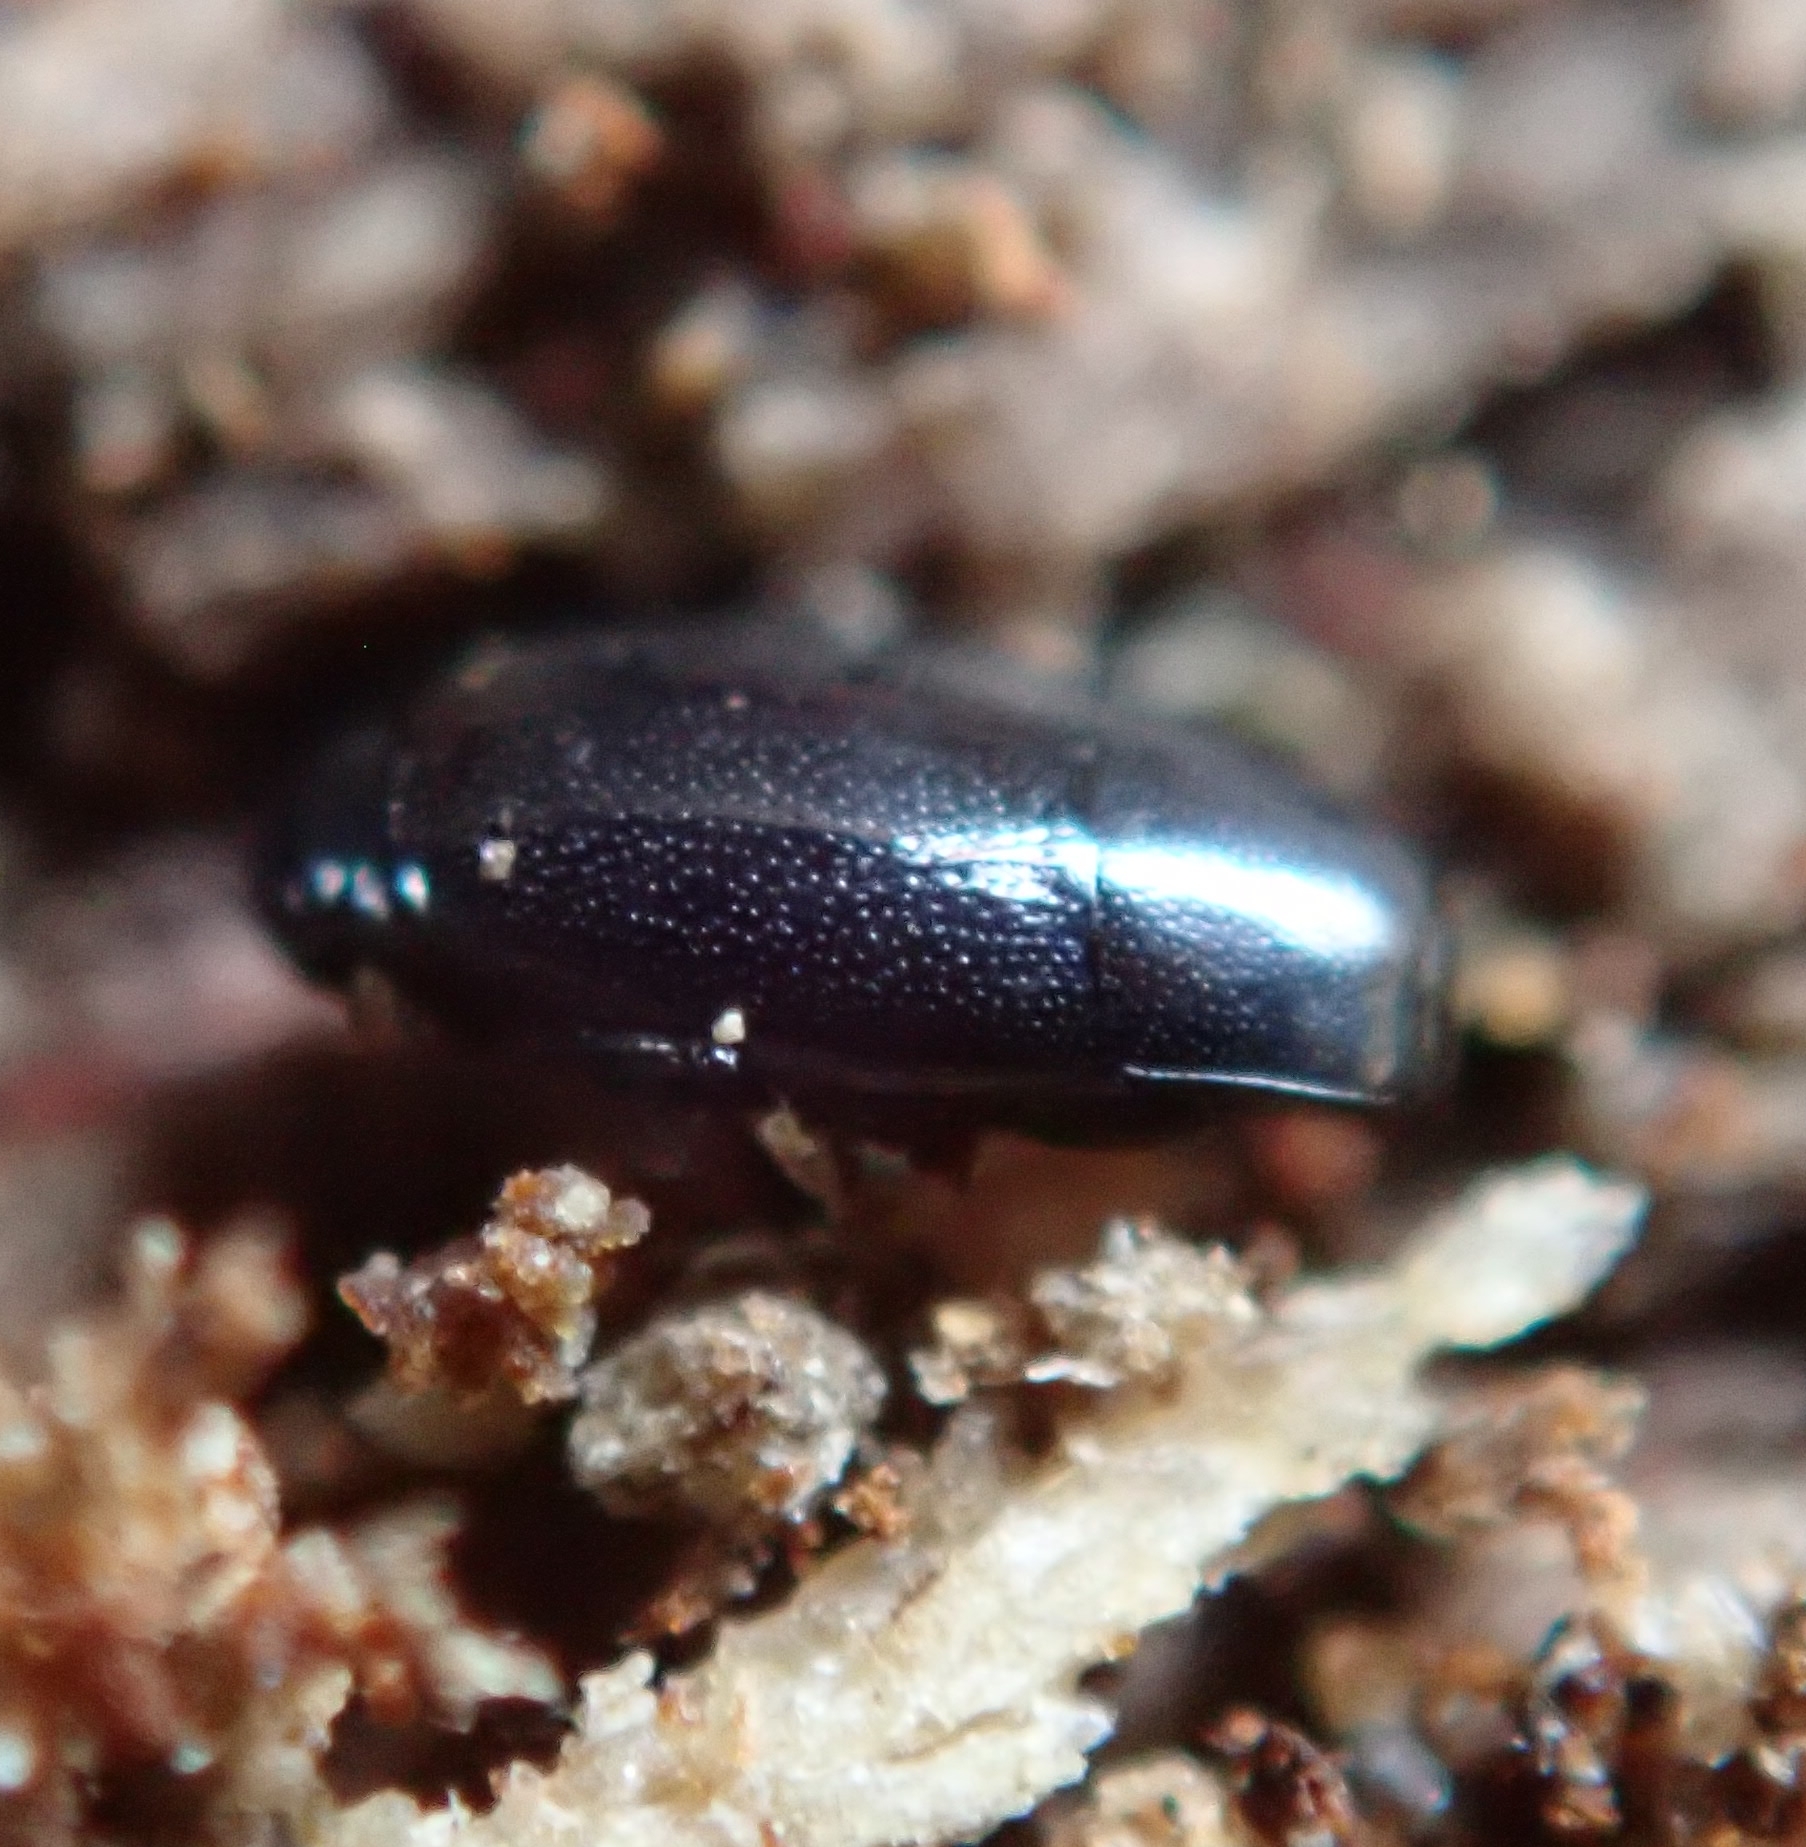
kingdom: Animalia
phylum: Arthropoda
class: Insecta
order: Coleoptera
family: Histeridae
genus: Paromalus
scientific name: Paromalus flavicornis
